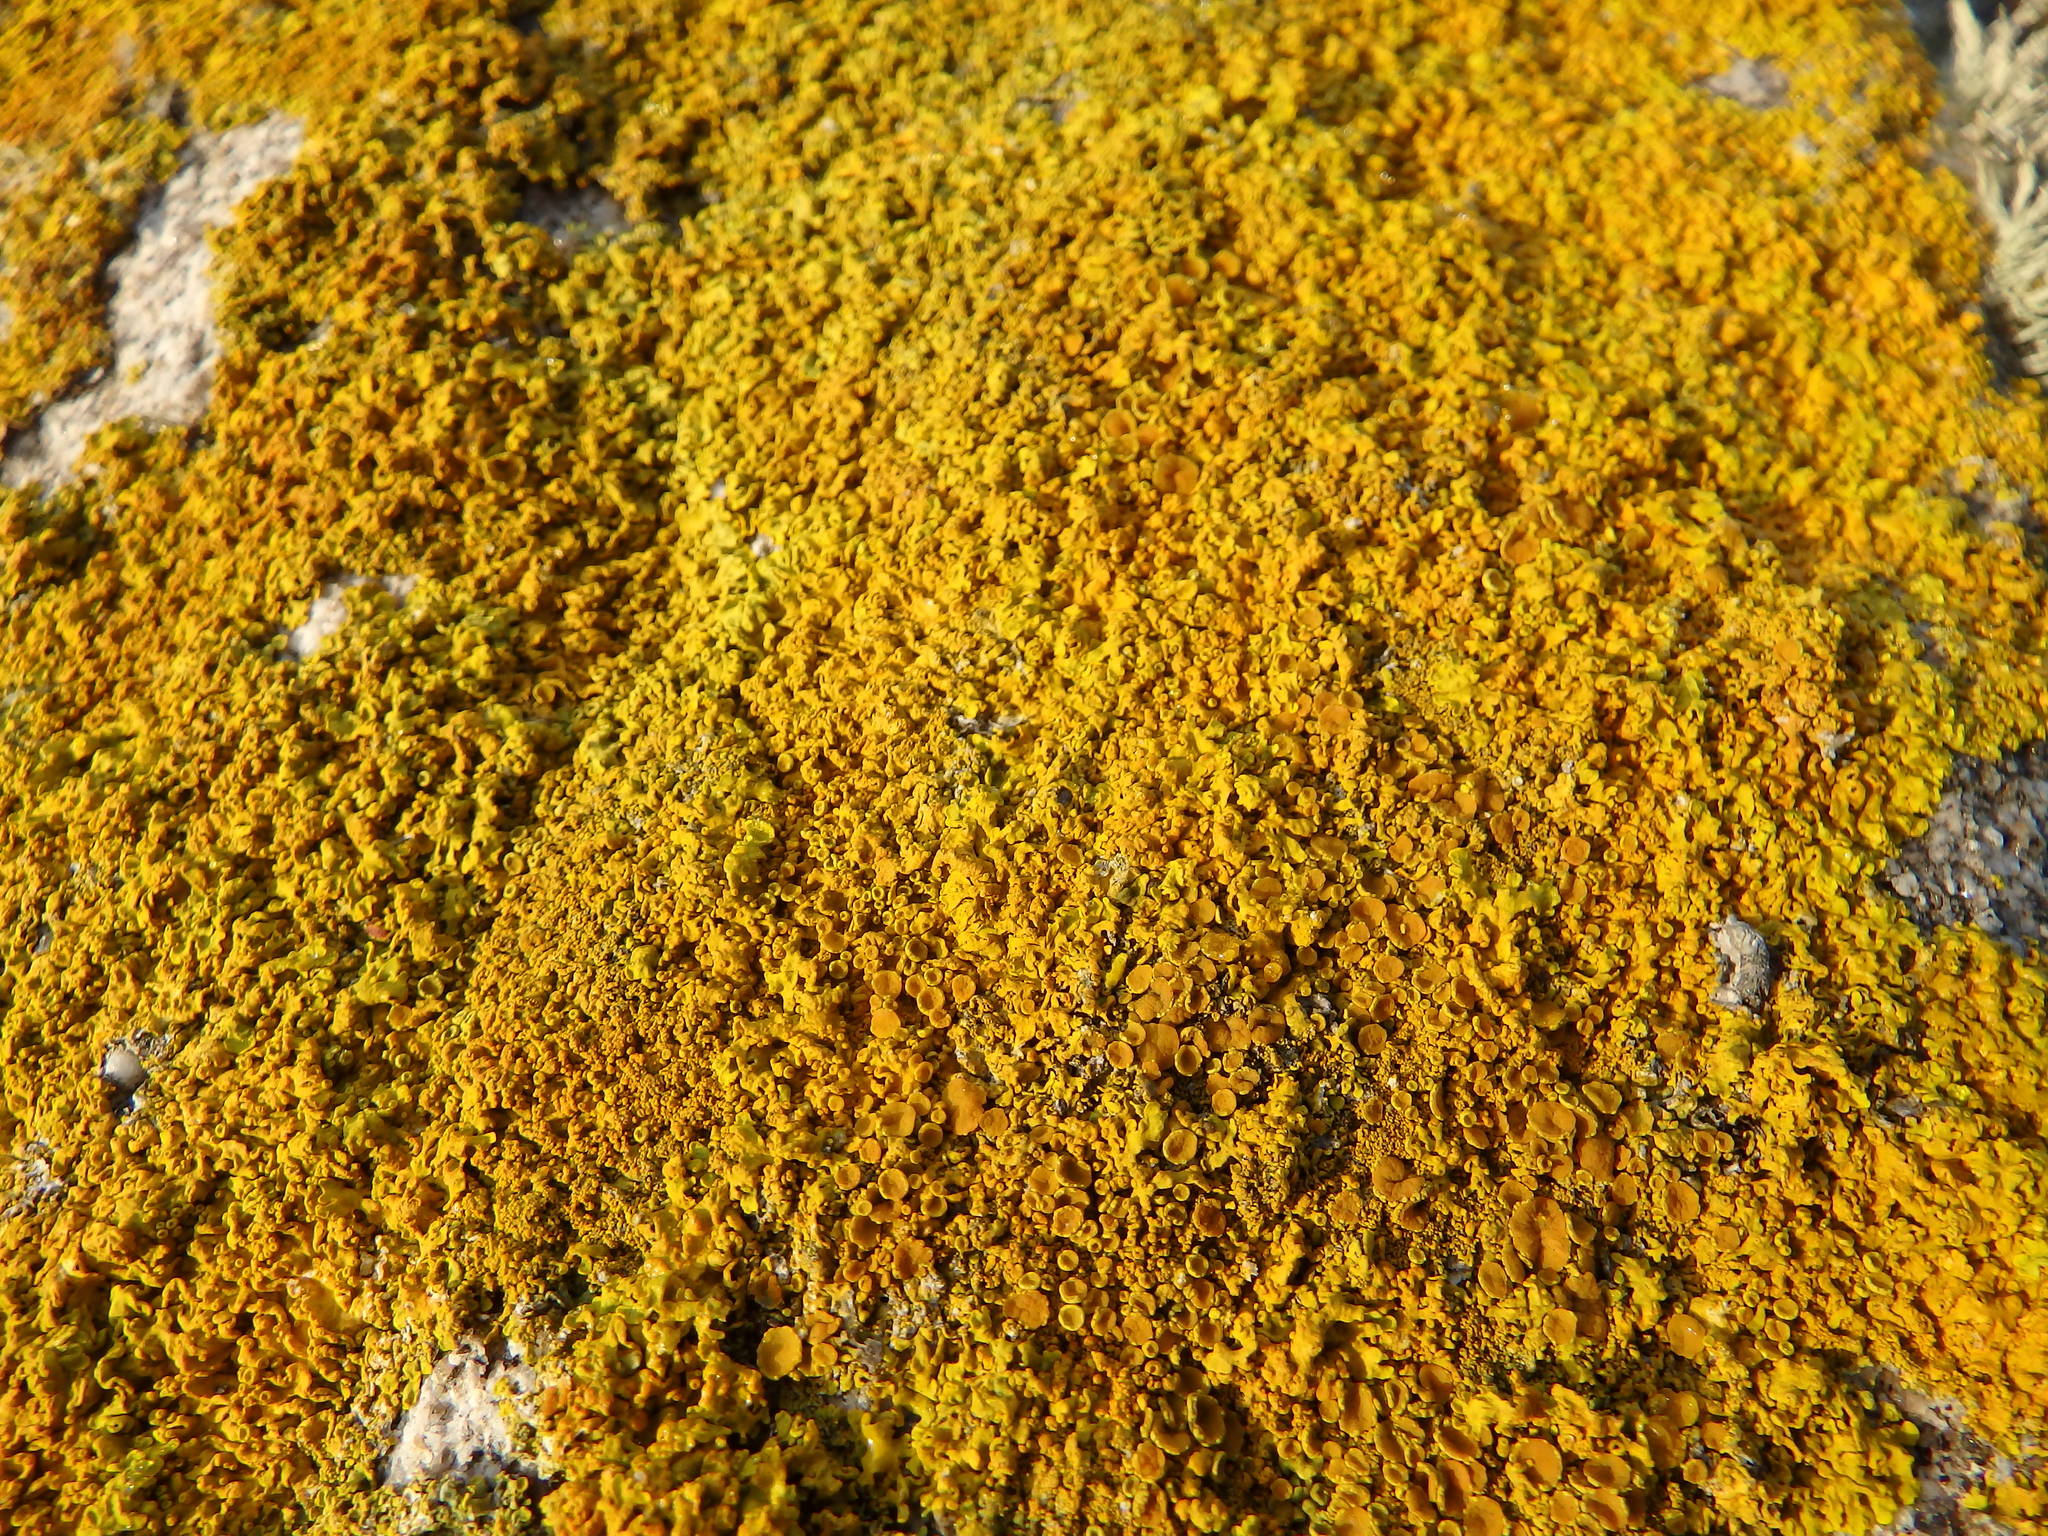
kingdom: Fungi
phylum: Ascomycota
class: Lecanoromycetes
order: Teloschistales
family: Teloschistaceae
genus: Xanthoria
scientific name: Xanthoria
